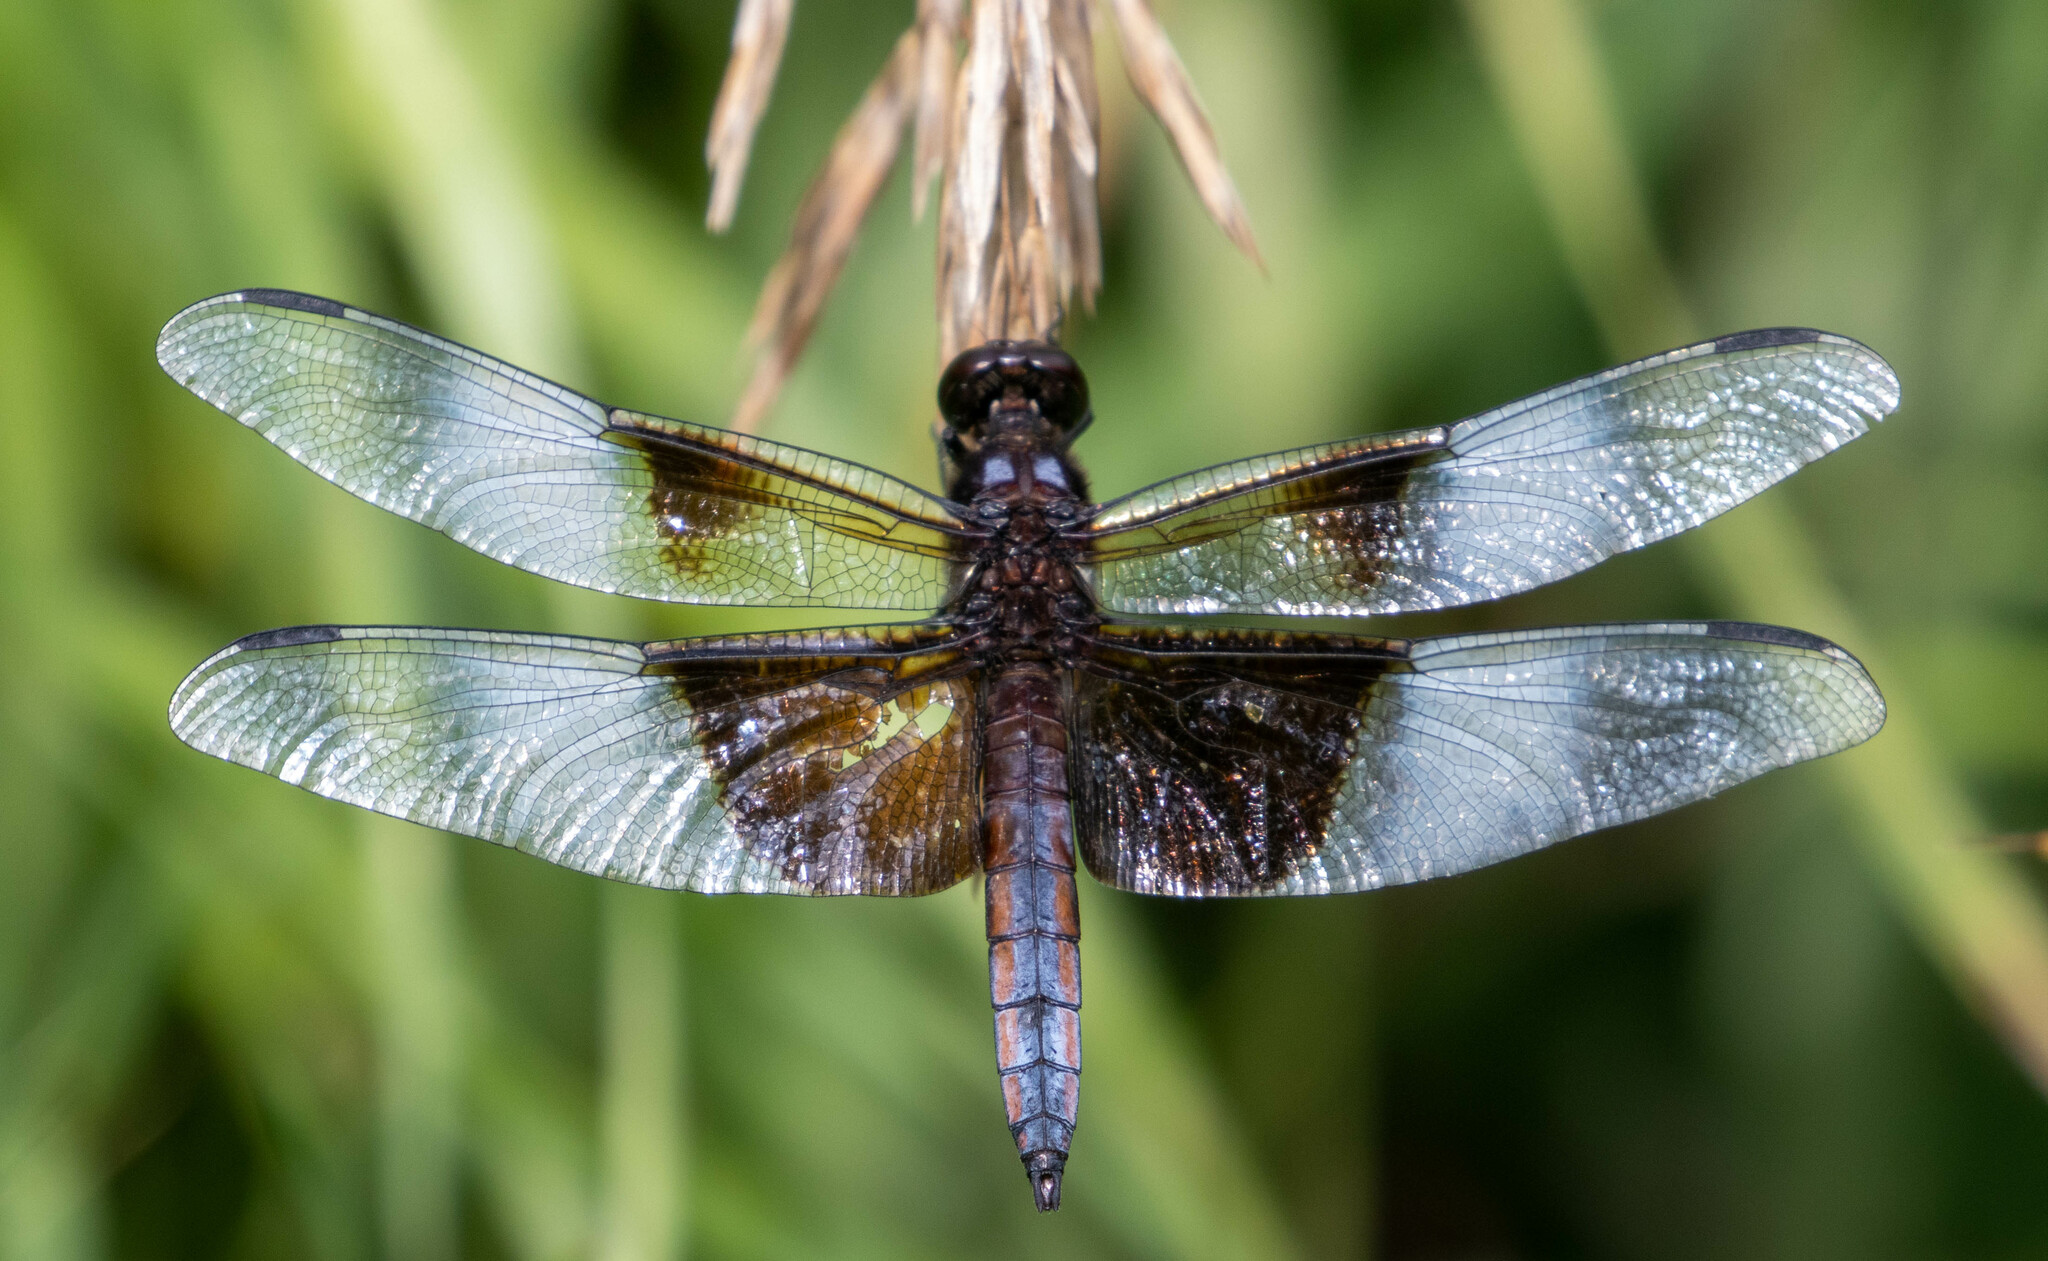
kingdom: Animalia
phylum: Arthropoda
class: Insecta
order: Odonata
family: Libellulidae
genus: Libellula
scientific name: Libellula luctuosa
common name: Widow skimmer
